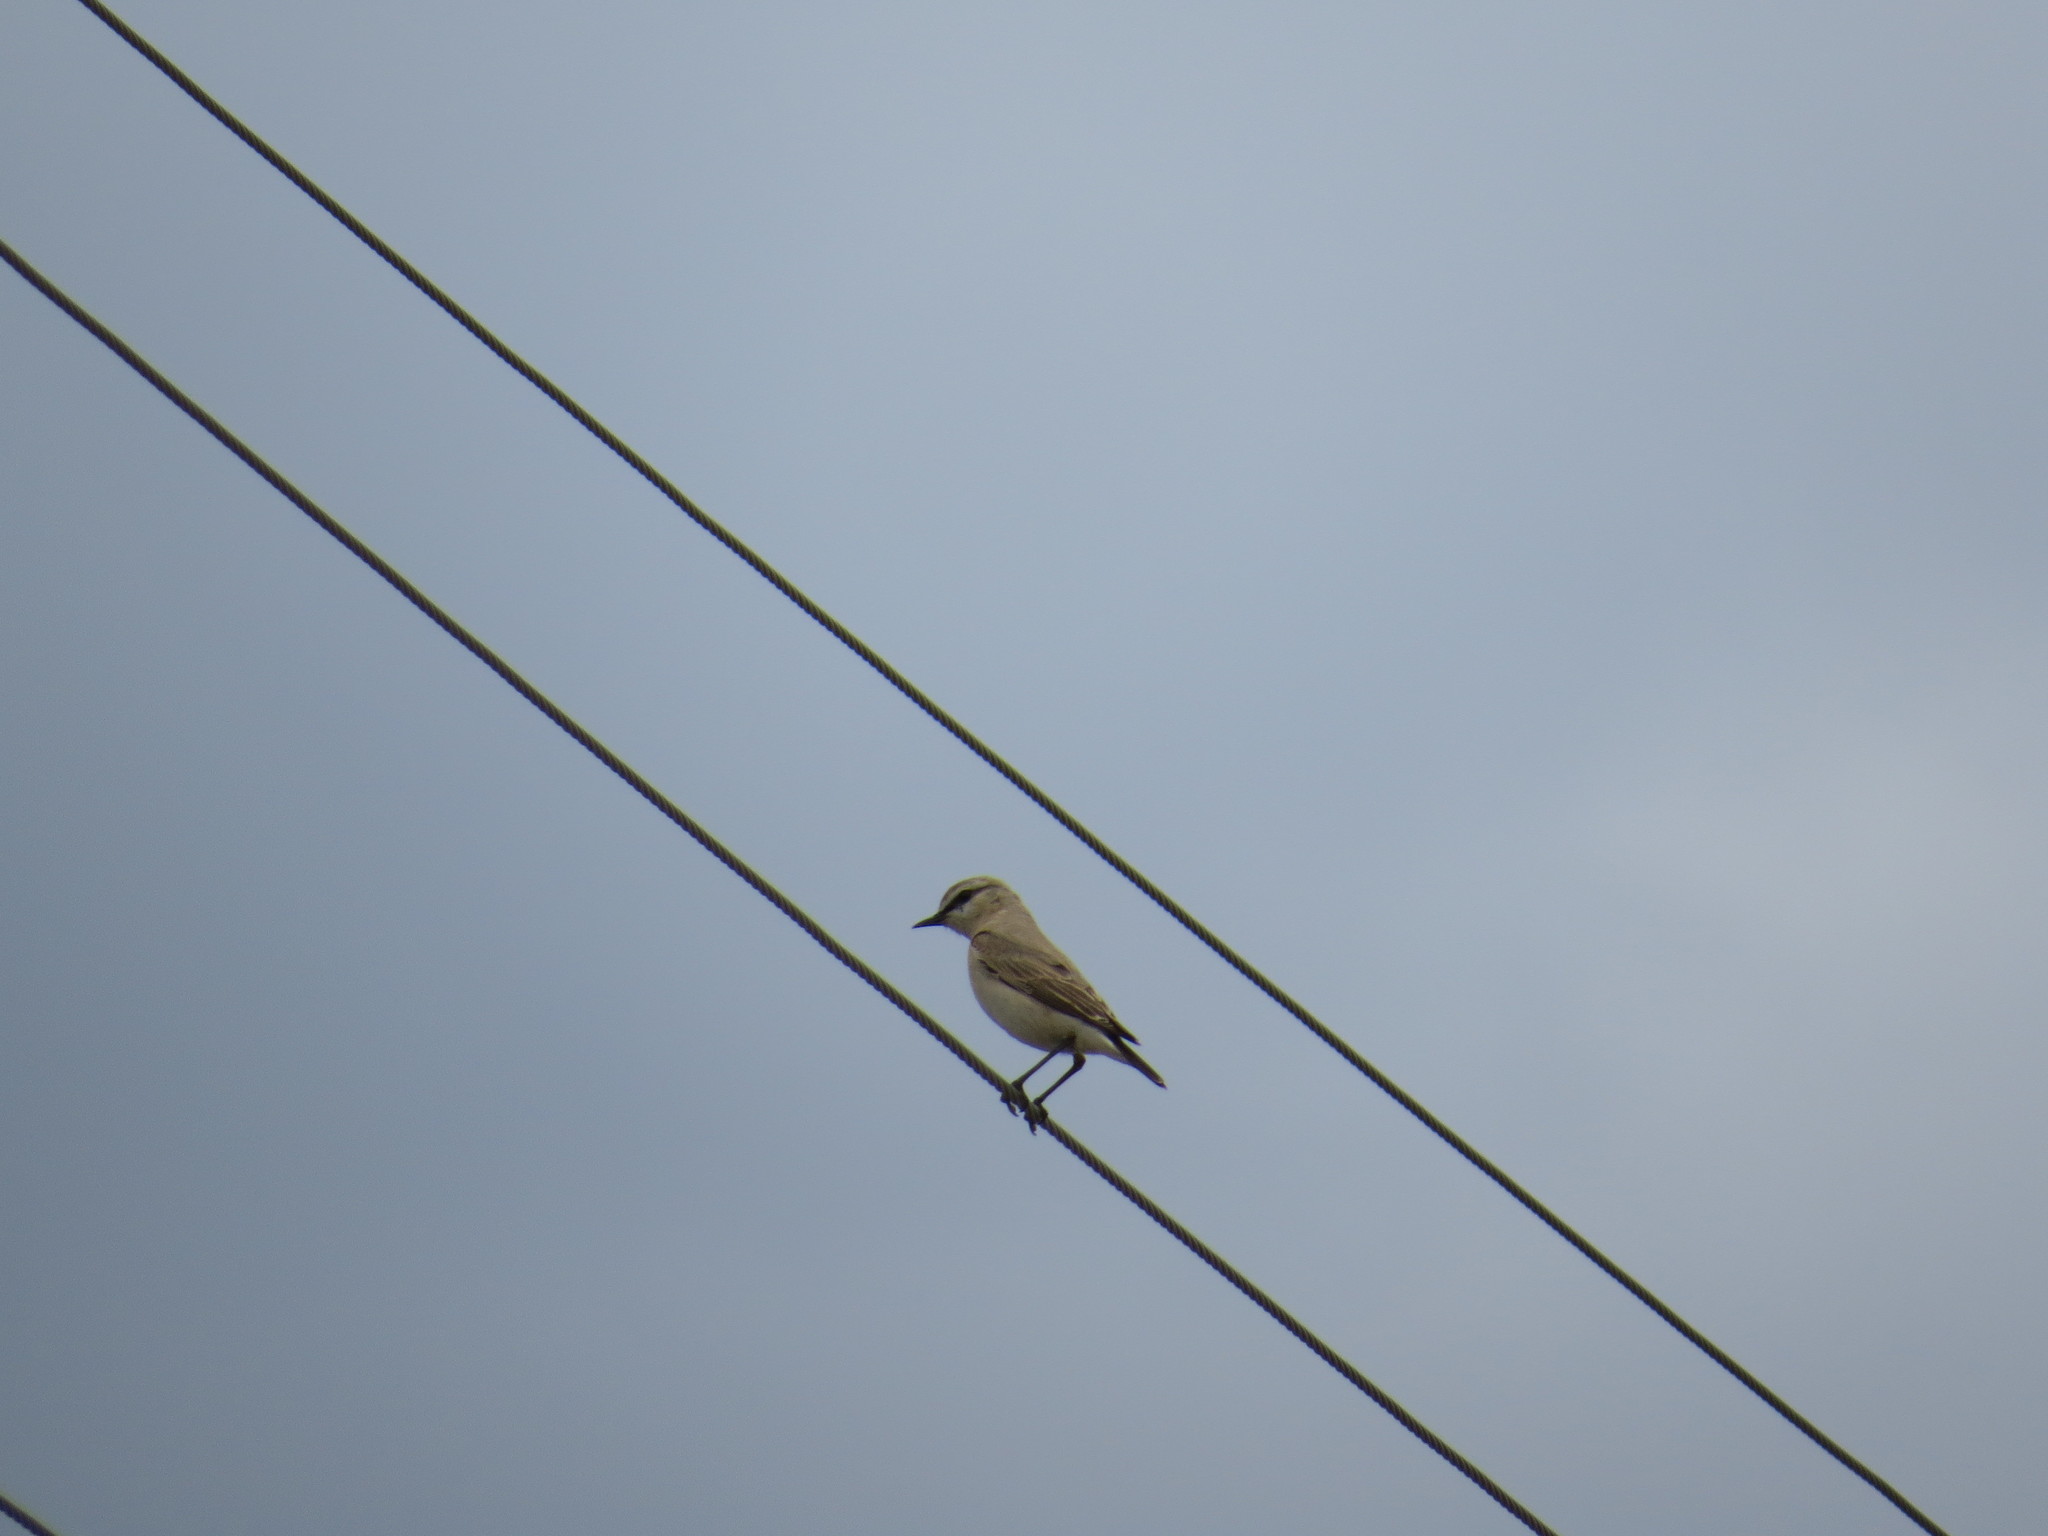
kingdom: Animalia
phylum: Chordata
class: Aves
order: Passeriformes
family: Muscicapidae
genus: Oenanthe
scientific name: Oenanthe isabellina
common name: Isabelline wheatear
